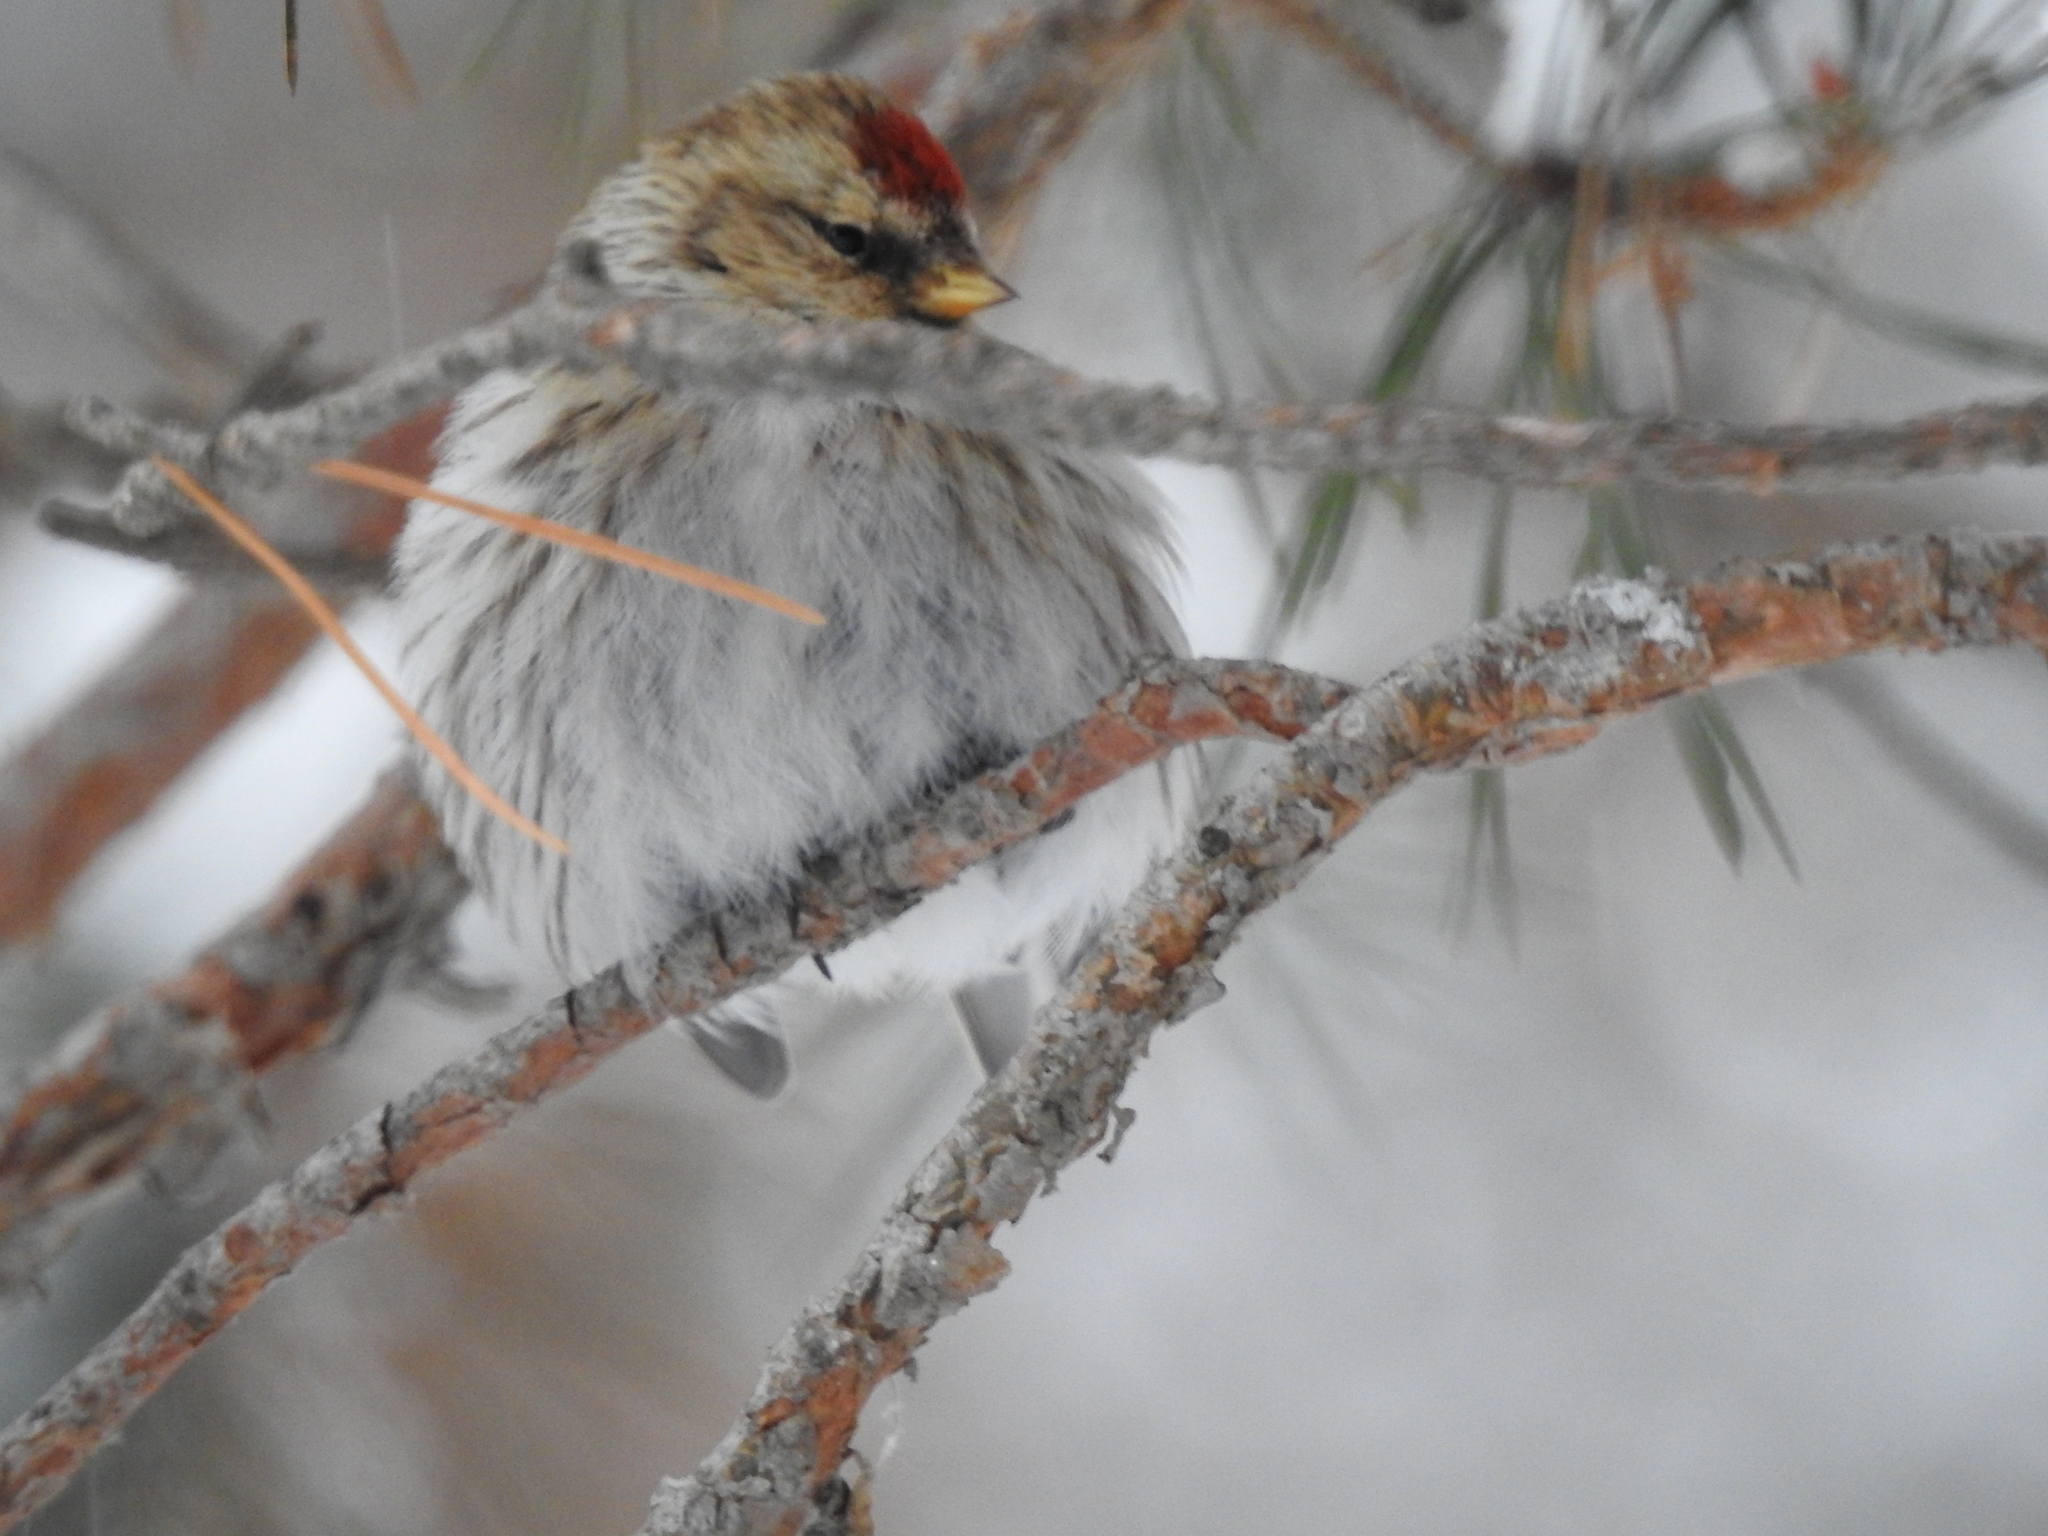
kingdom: Animalia
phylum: Chordata
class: Aves
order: Passeriformes
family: Fringillidae
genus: Acanthis
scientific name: Acanthis flammea
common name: Common redpoll
